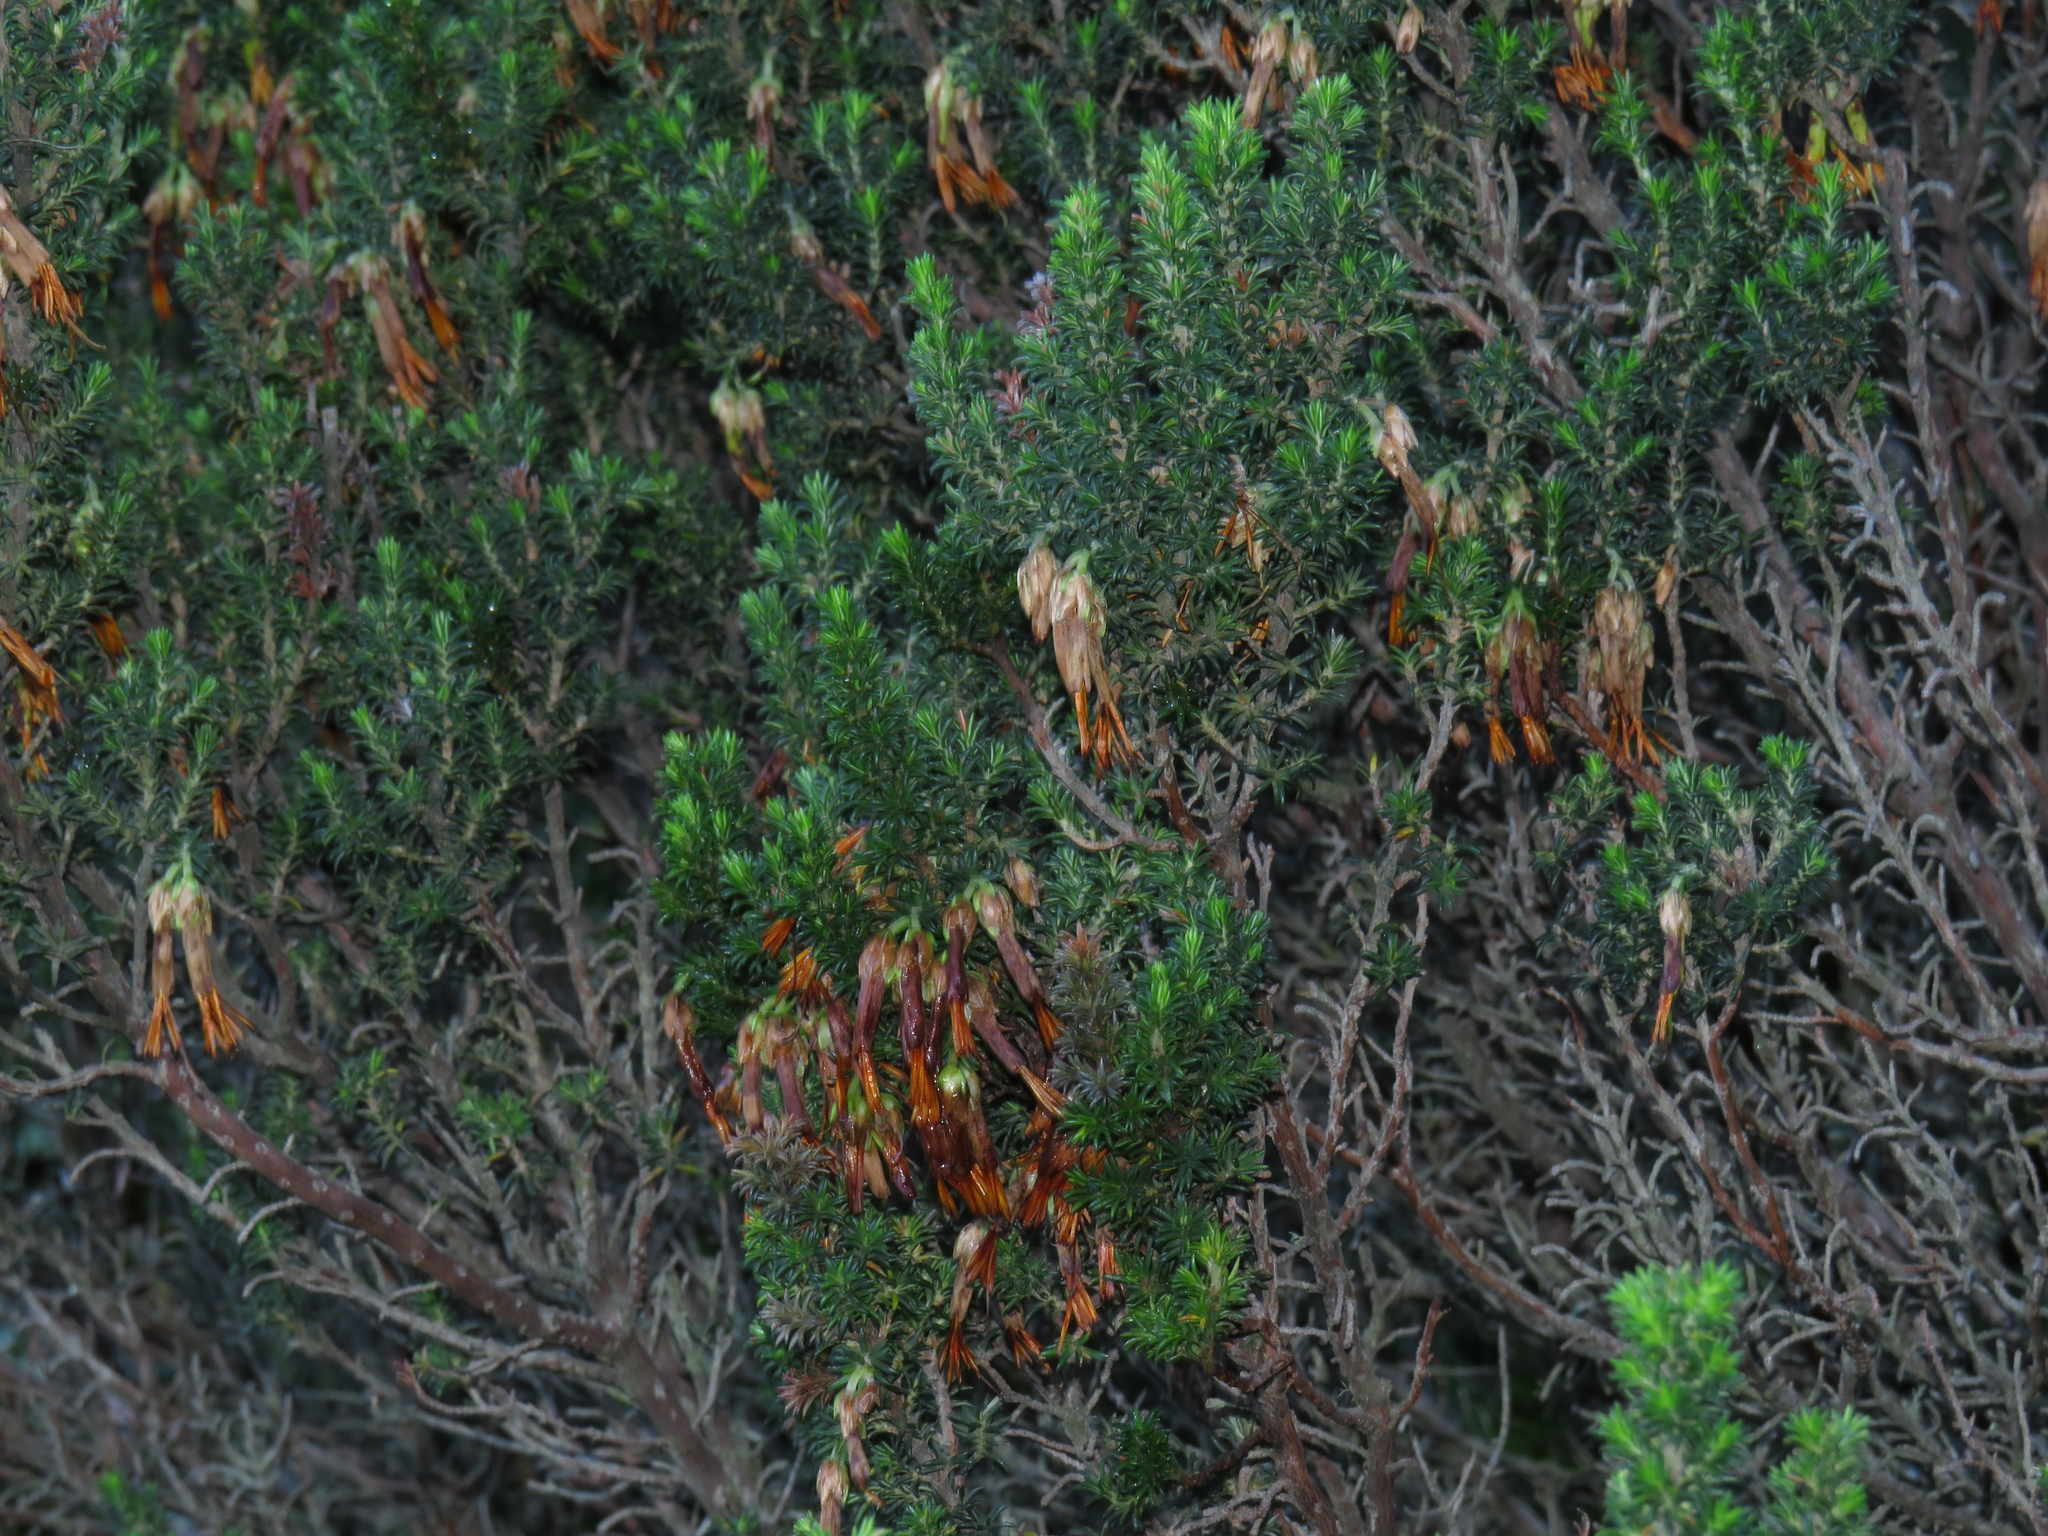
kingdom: Plantae
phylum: Tracheophyta
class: Magnoliopsida
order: Ericales
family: Ericaceae
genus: Erica
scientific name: Erica coccinea
